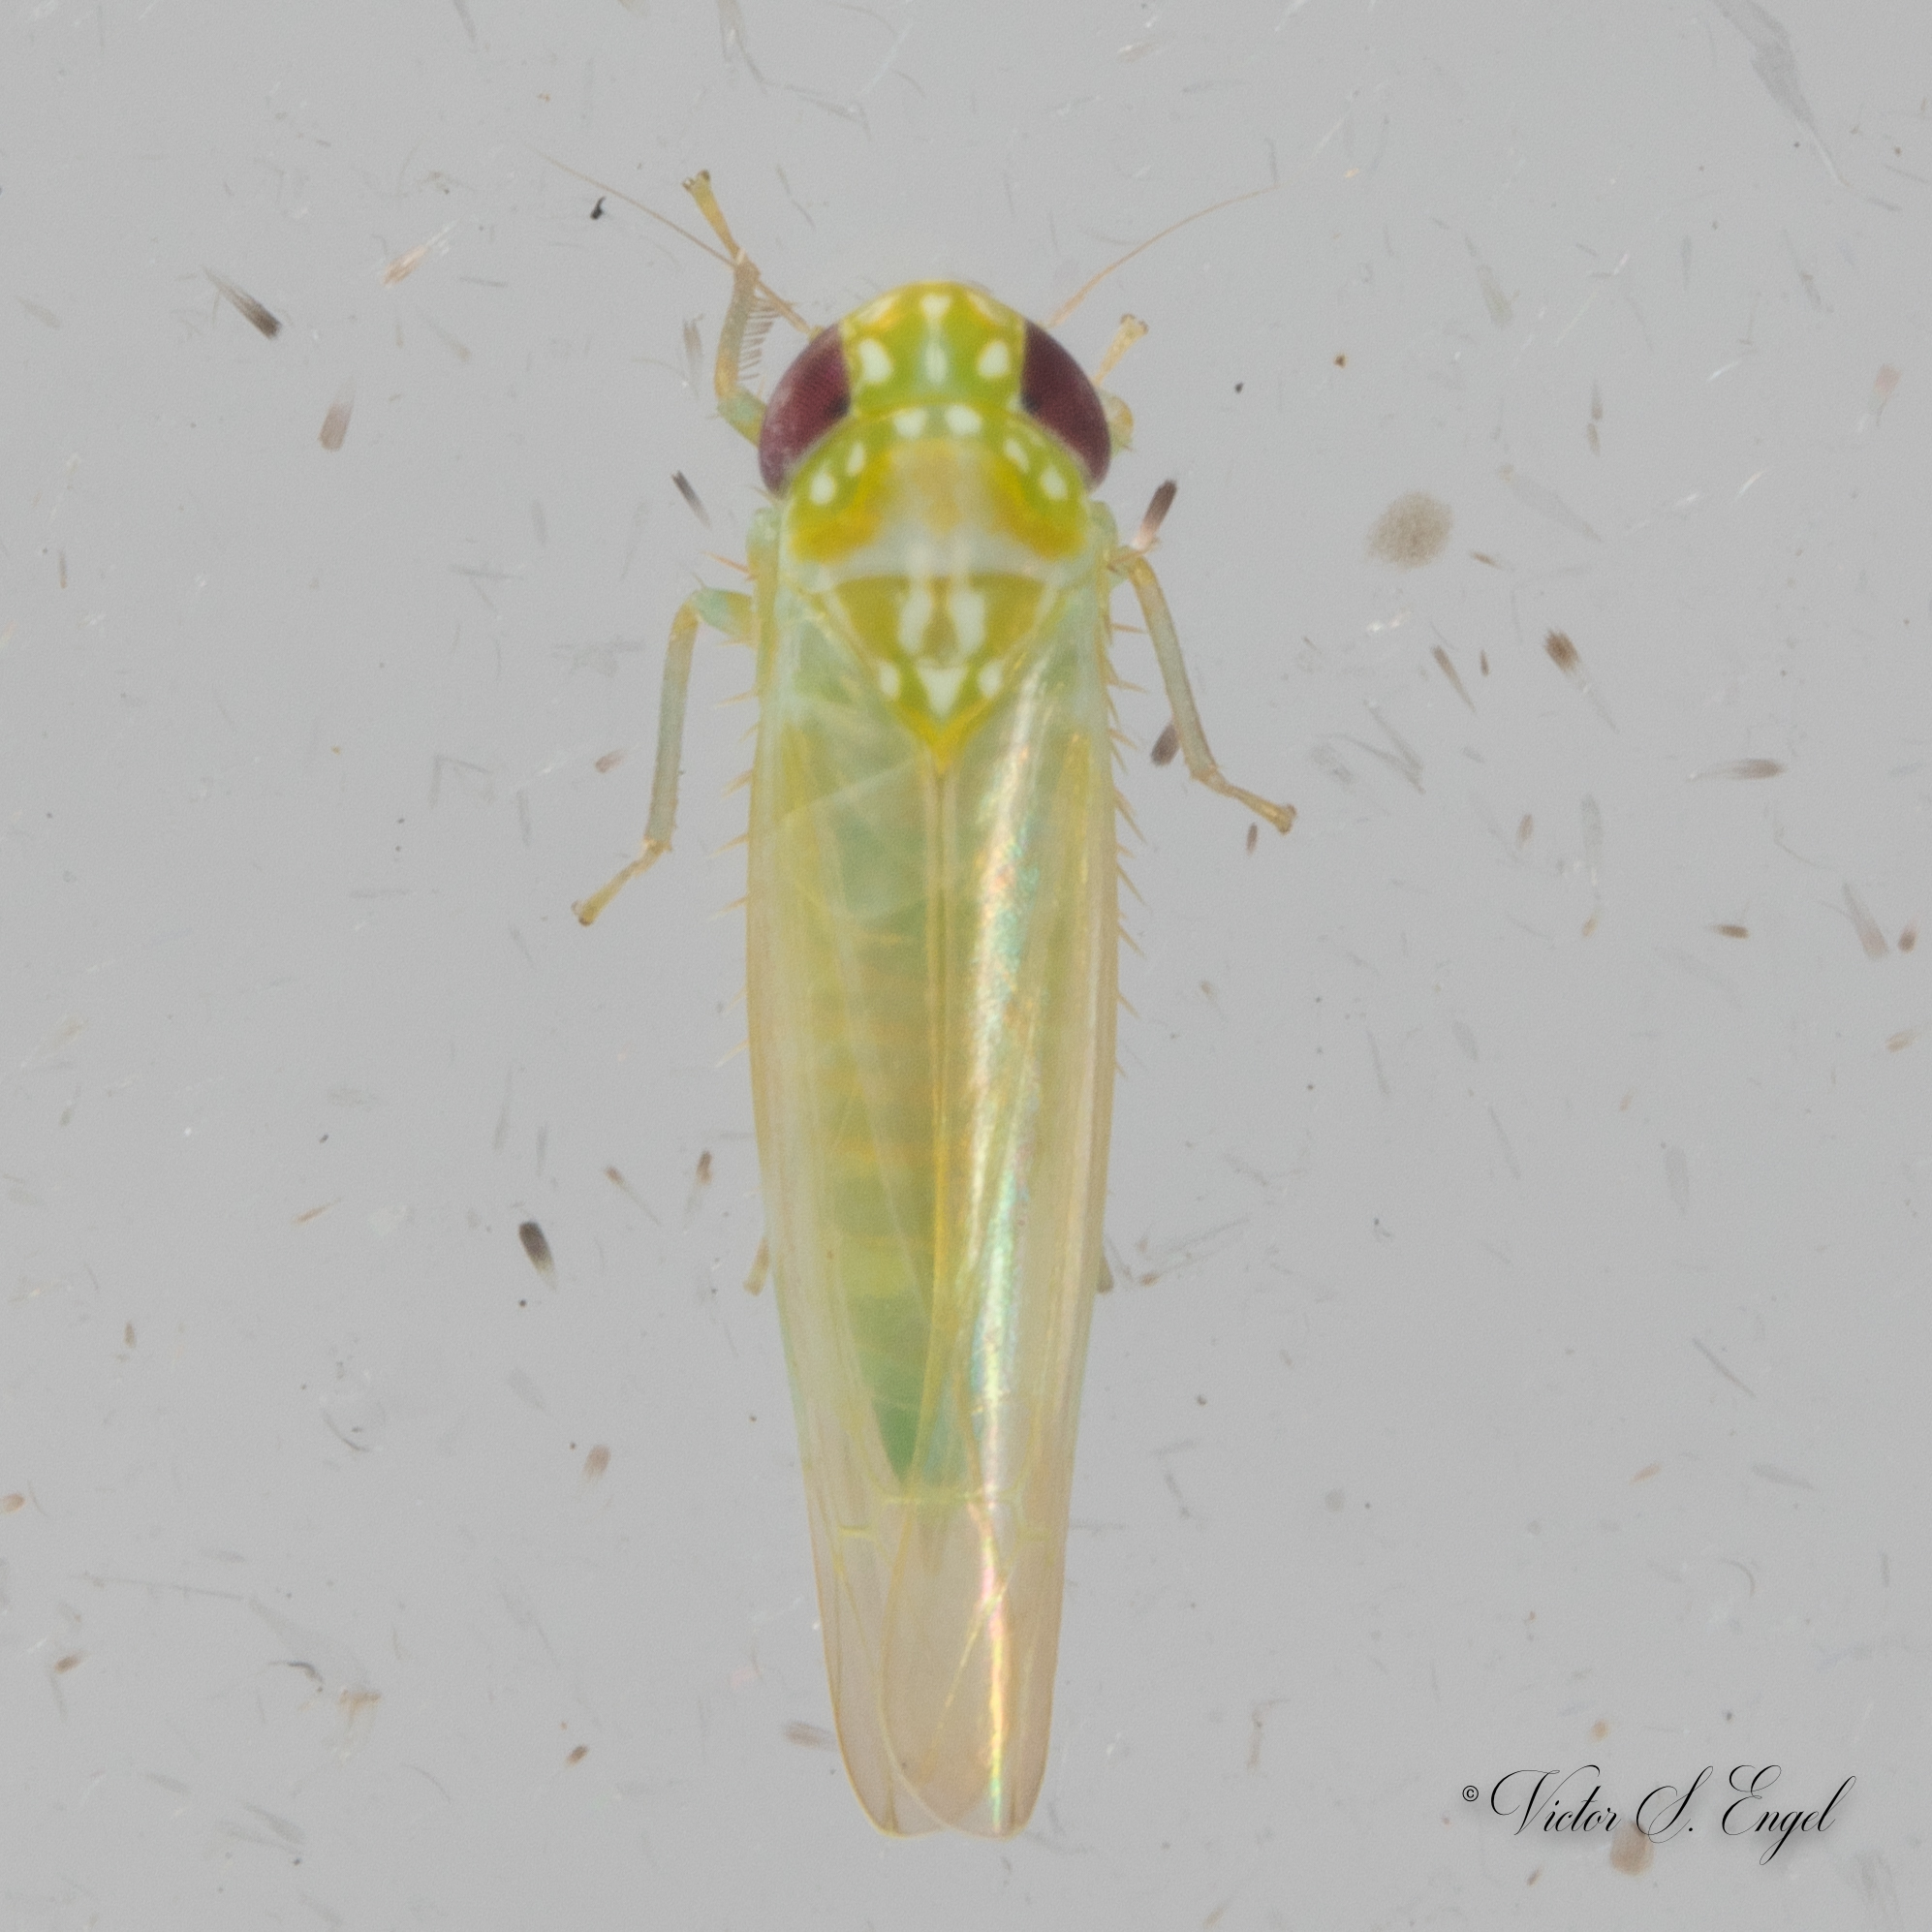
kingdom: Animalia
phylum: Arthropoda
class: Insecta
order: Hemiptera
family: Cicadellidae
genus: Empoasca
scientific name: Empoasca fabae
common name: Potato leafhopper
